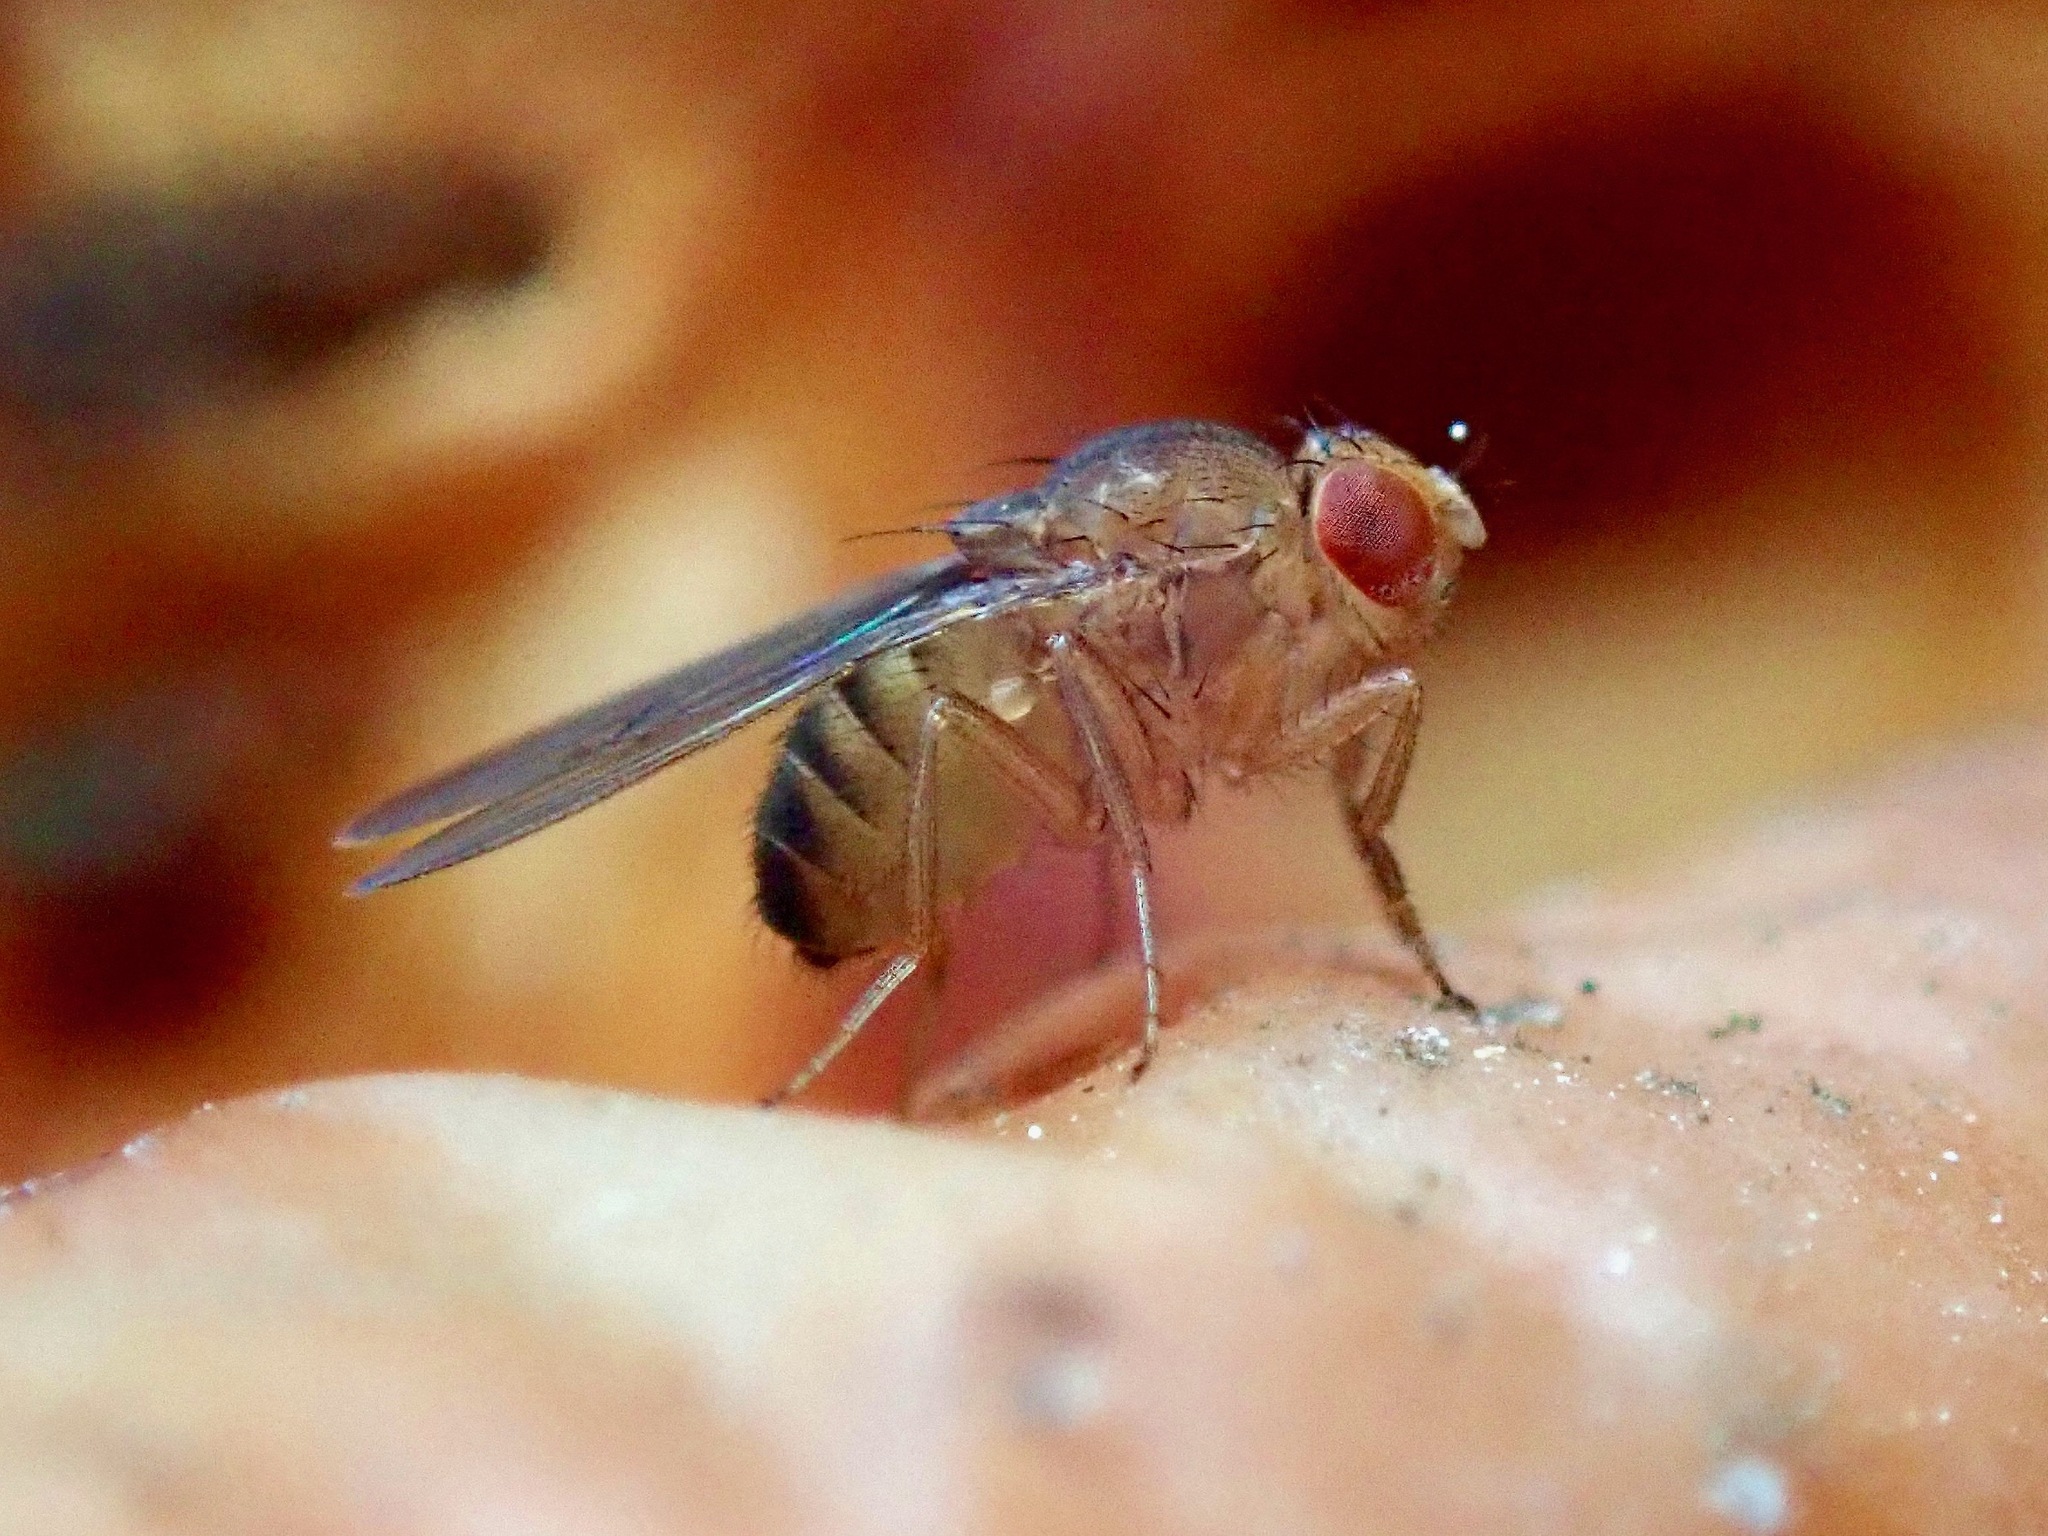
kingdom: Animalia
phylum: Arthropoda
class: Insecta
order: Diptera
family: Drosophilidae
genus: Drosophila
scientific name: Drosophila immigrans
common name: Pomace fly
